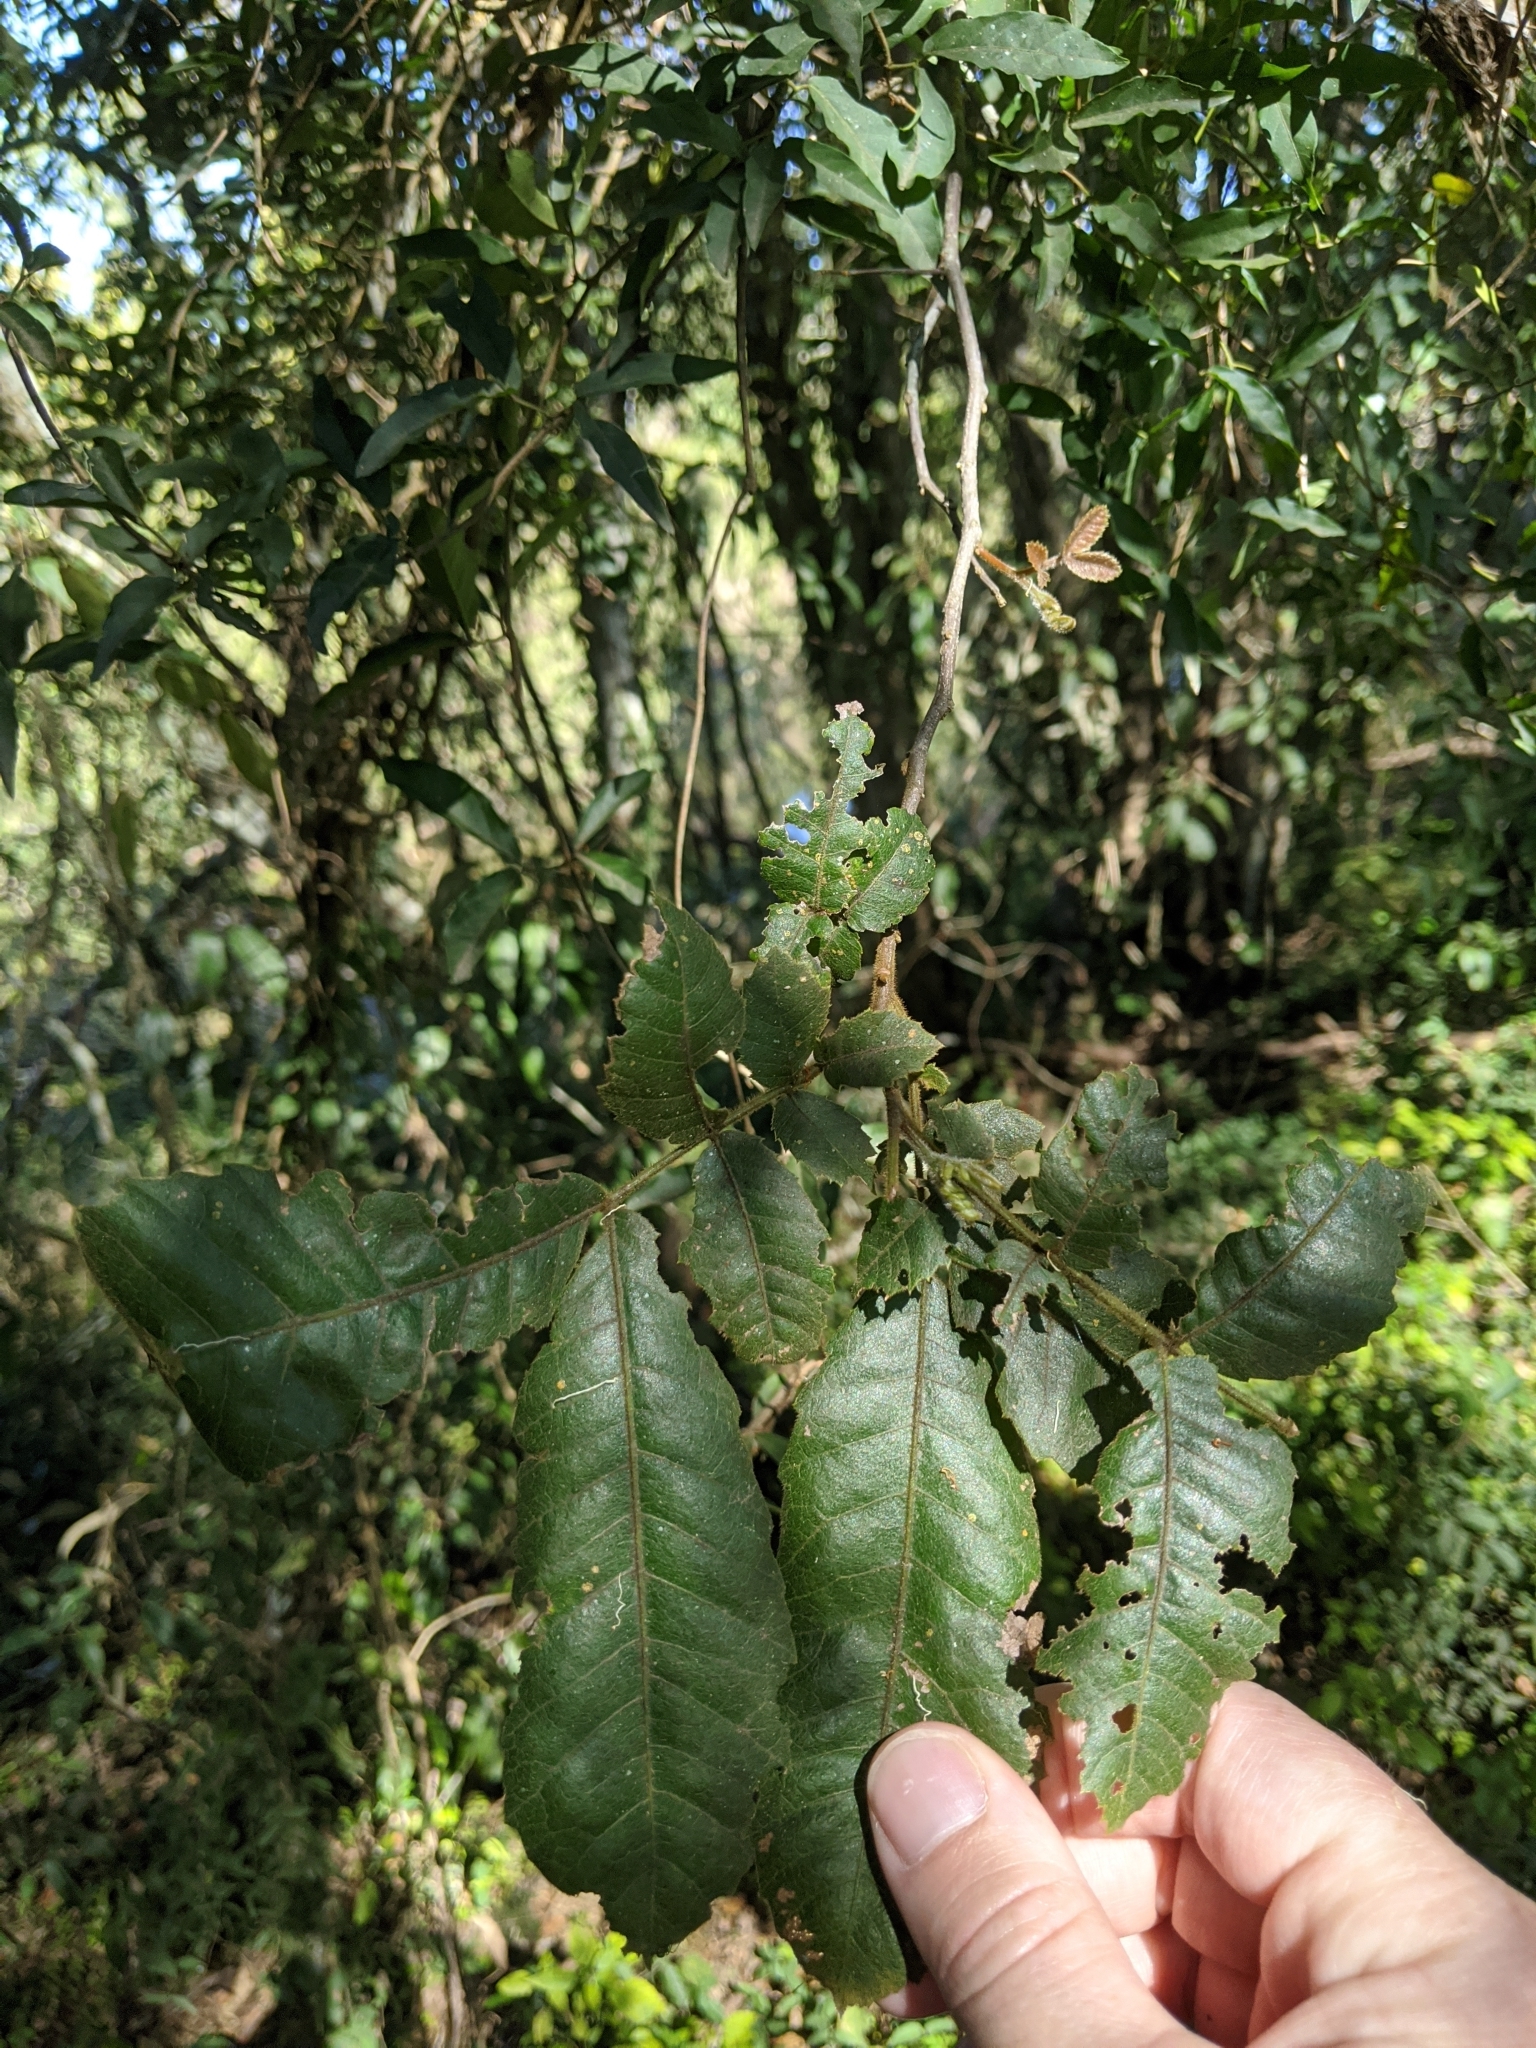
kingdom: Plantae
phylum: Tracheophyta
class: Magnoliopsida
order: Sapindales
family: Sapindaceae
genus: Alectryon
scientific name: Alectryon tomentosus
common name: Bed-jacket
